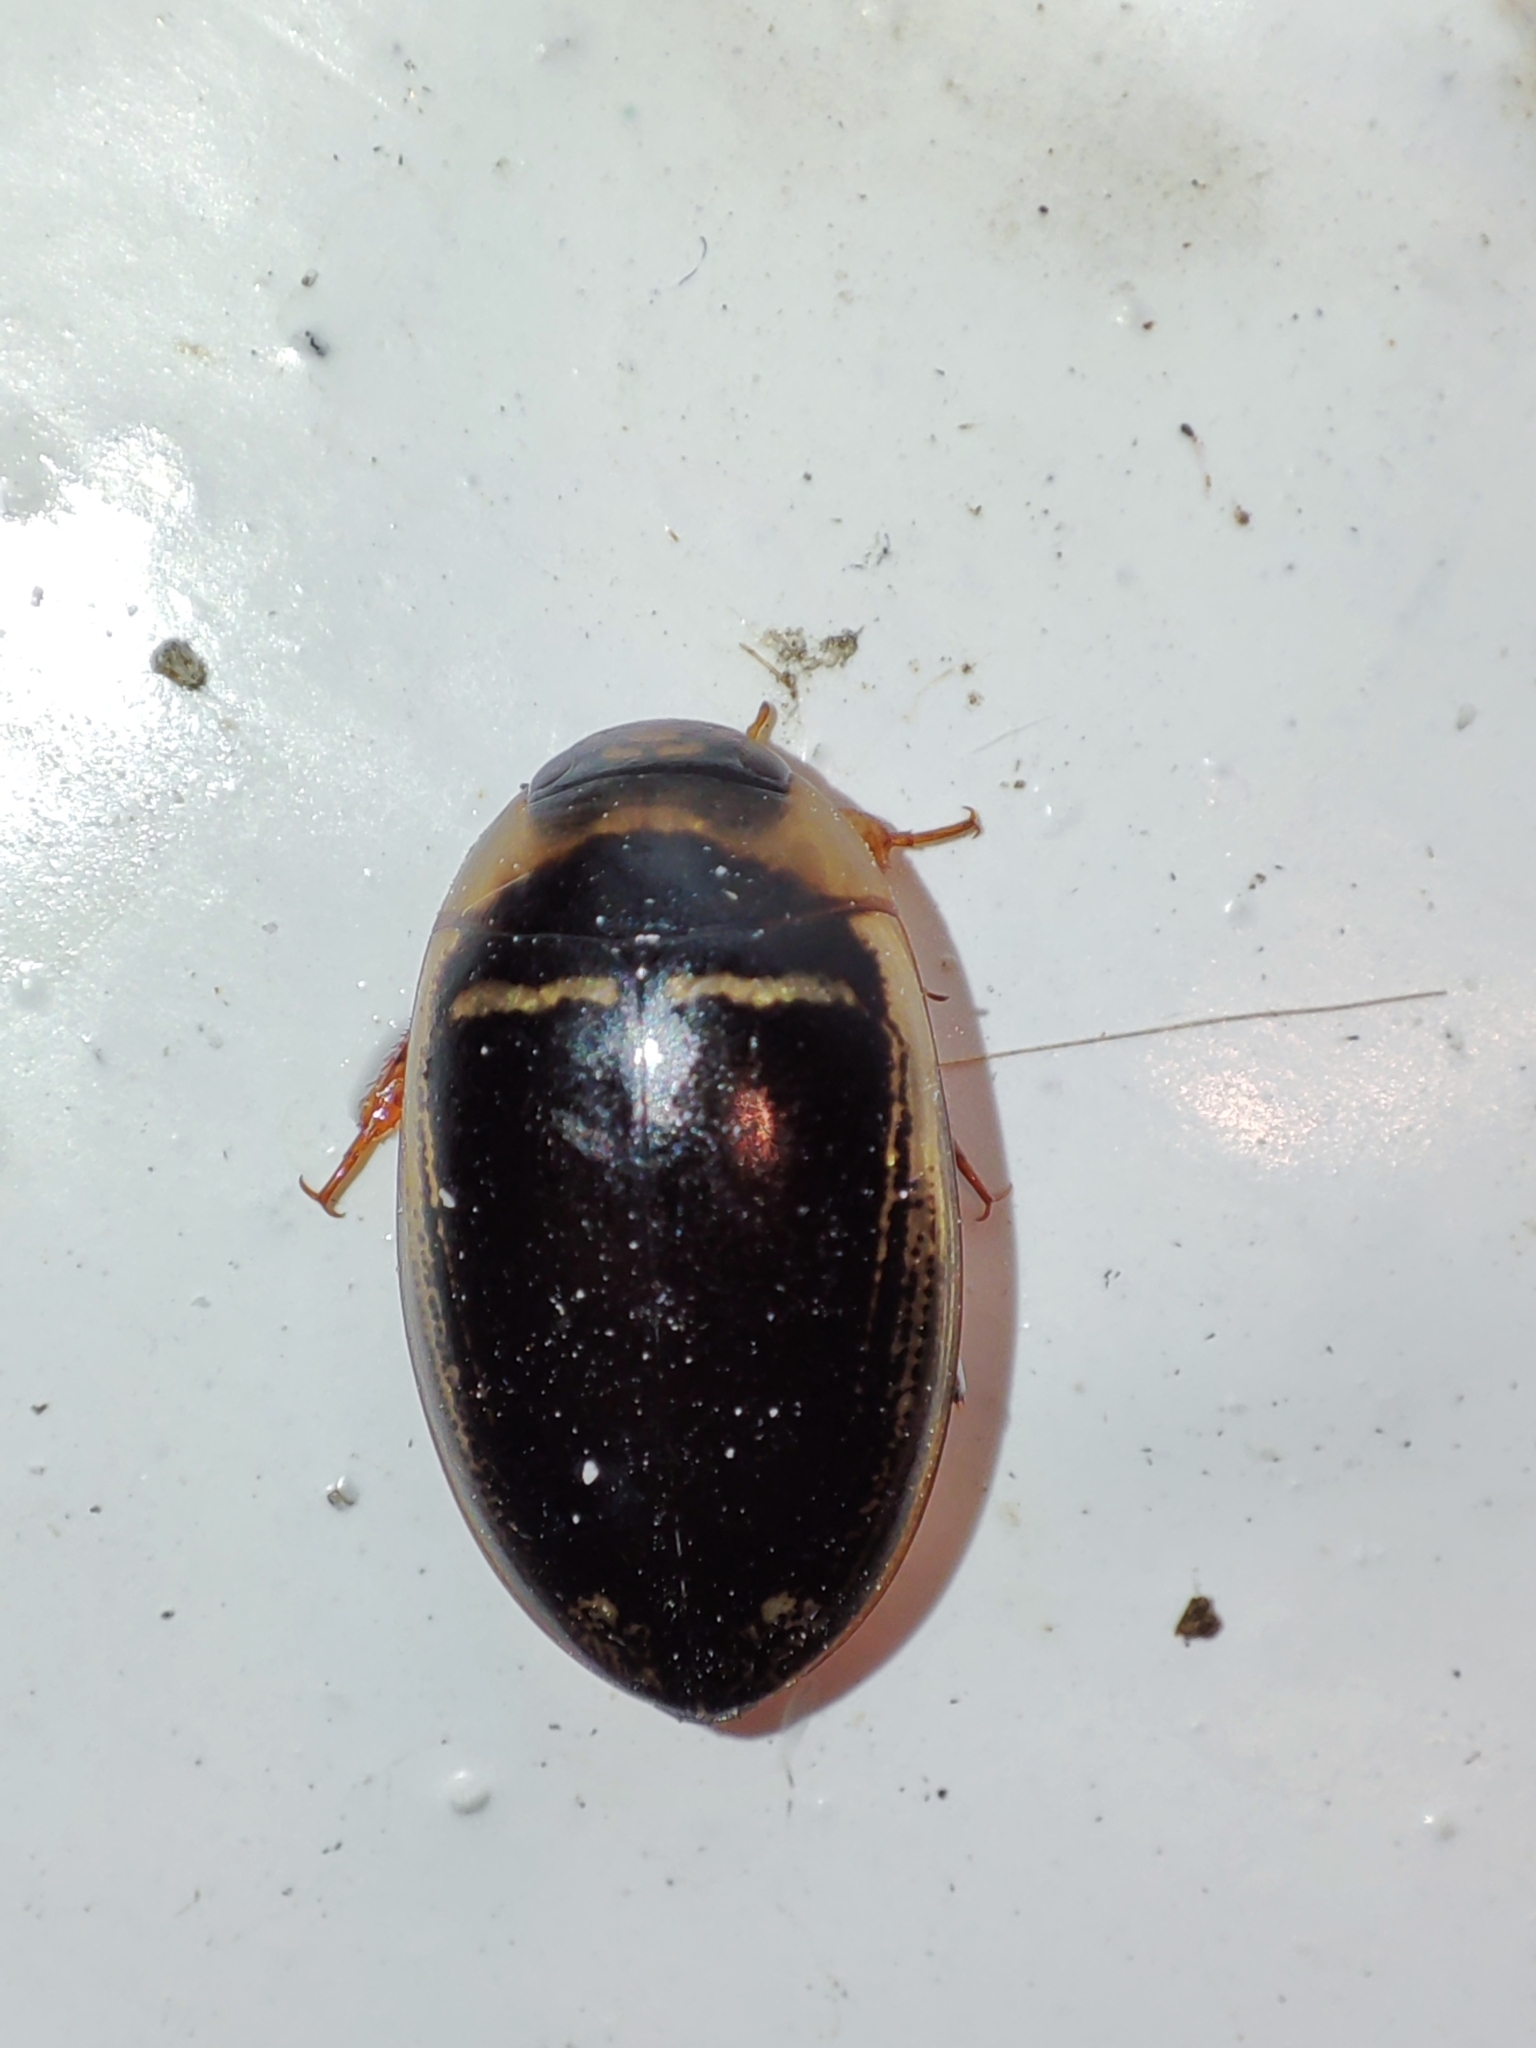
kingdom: Animalia
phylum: Arthropoda
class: Insecta
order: Coleoptera
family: Dytiscidae
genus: Hydaticus
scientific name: Hydaticus transversalis
